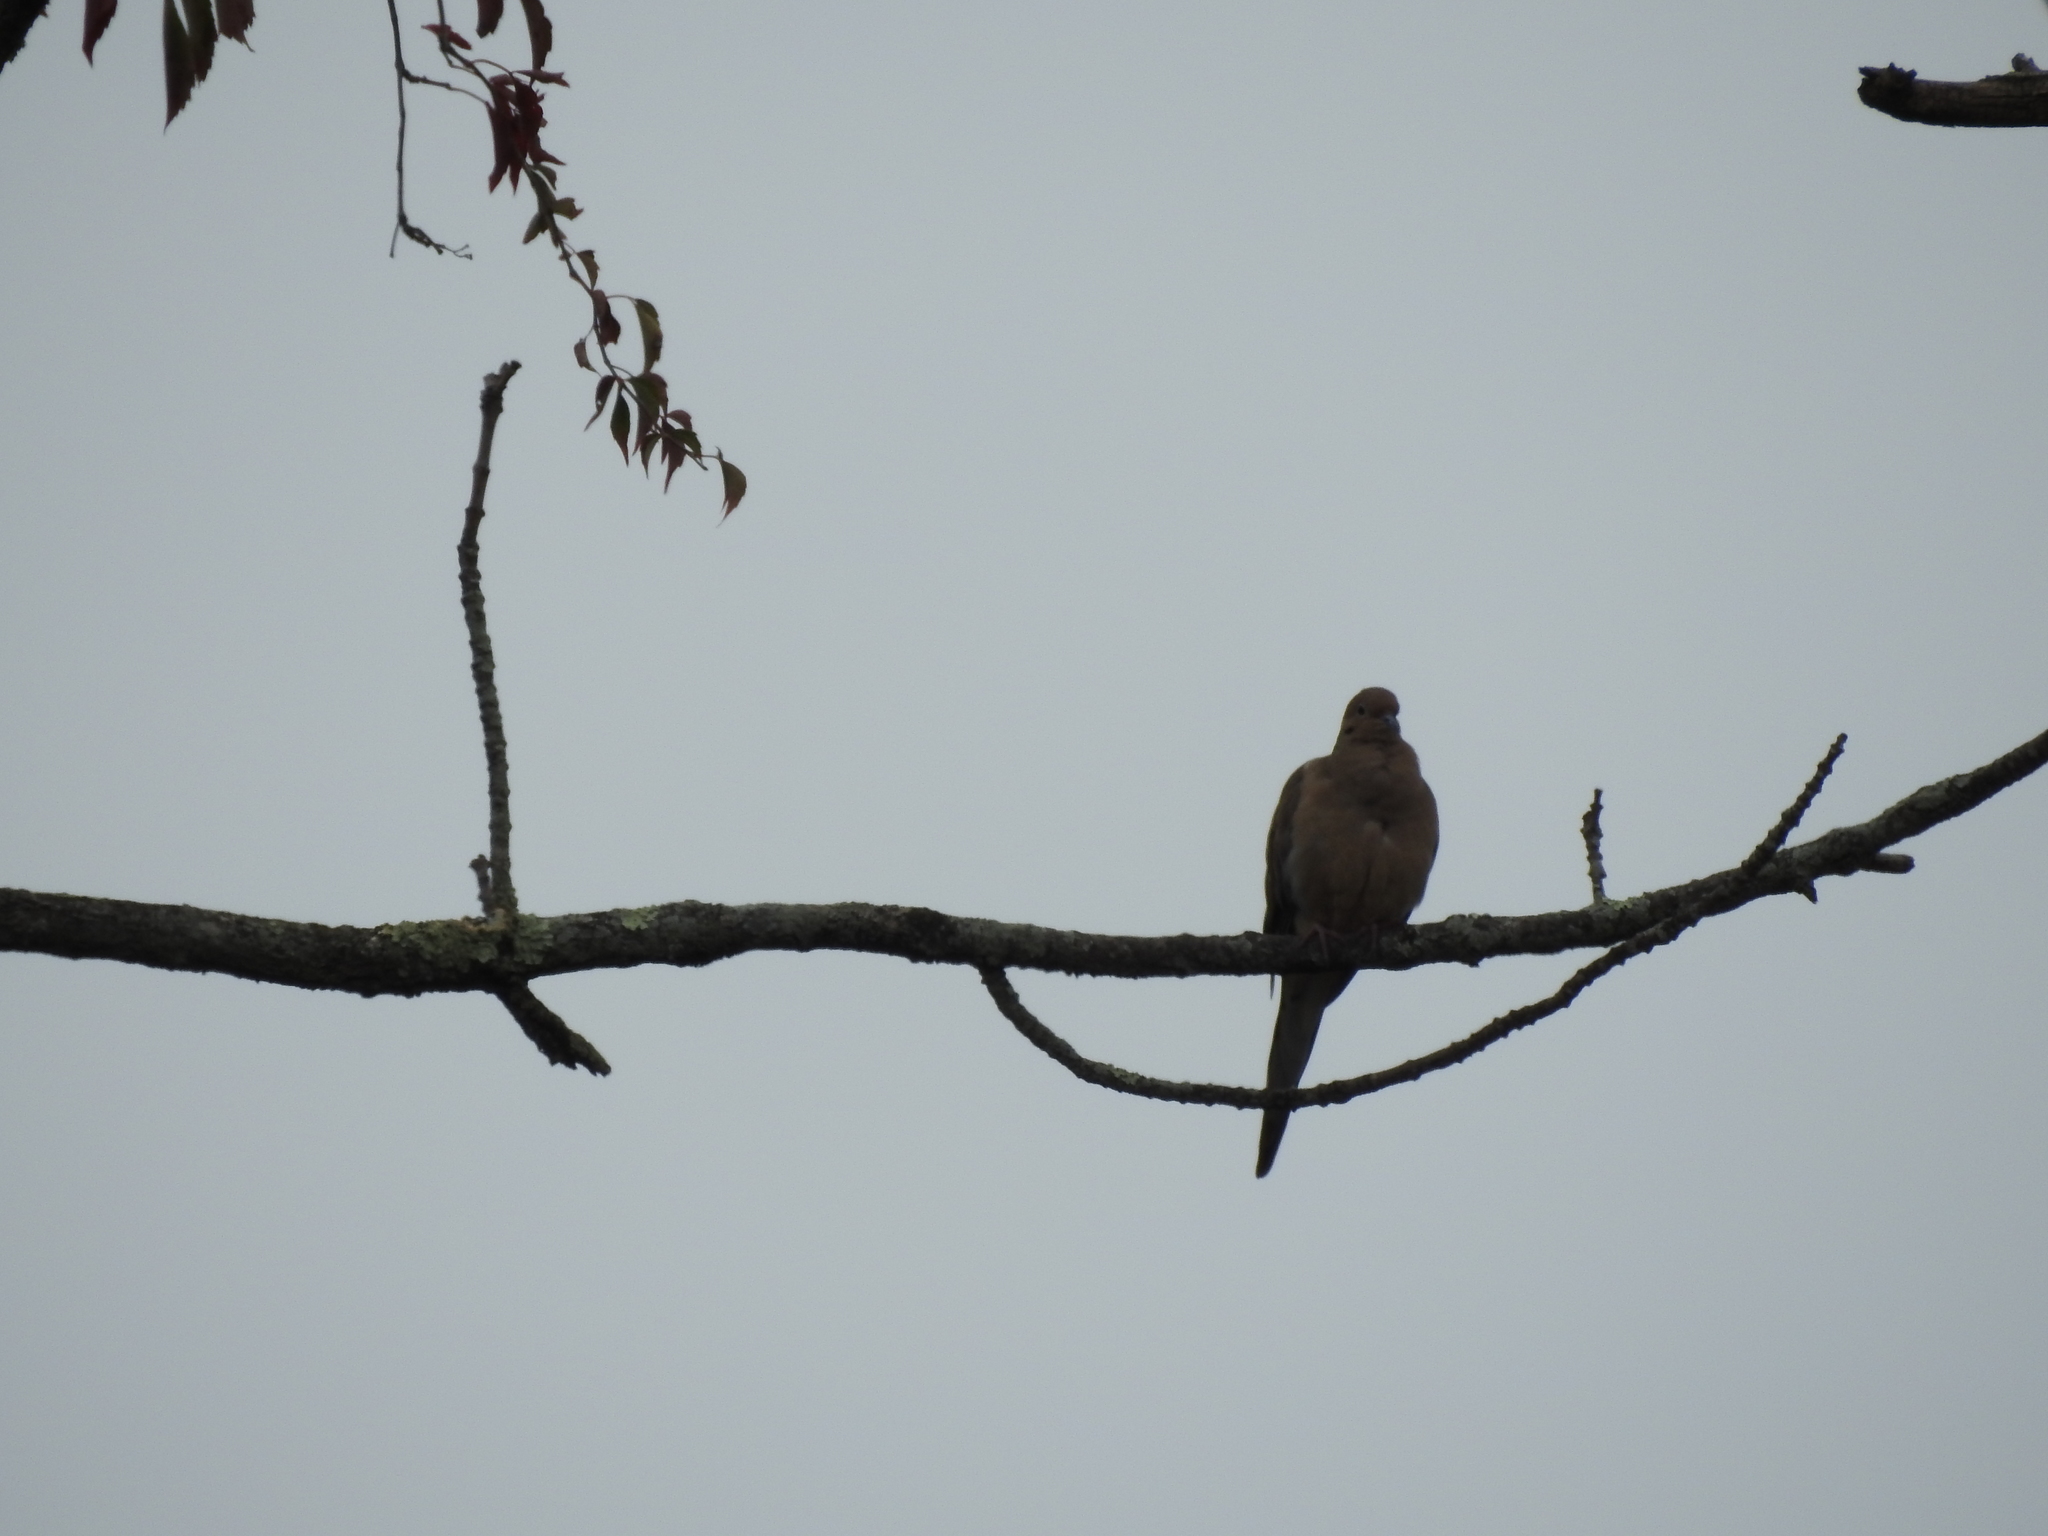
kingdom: Animalia
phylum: Chordata
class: Aves
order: Columbiformes
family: Columbidae
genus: Zenaida
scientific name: Zenaida macroura
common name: Mourning dove
